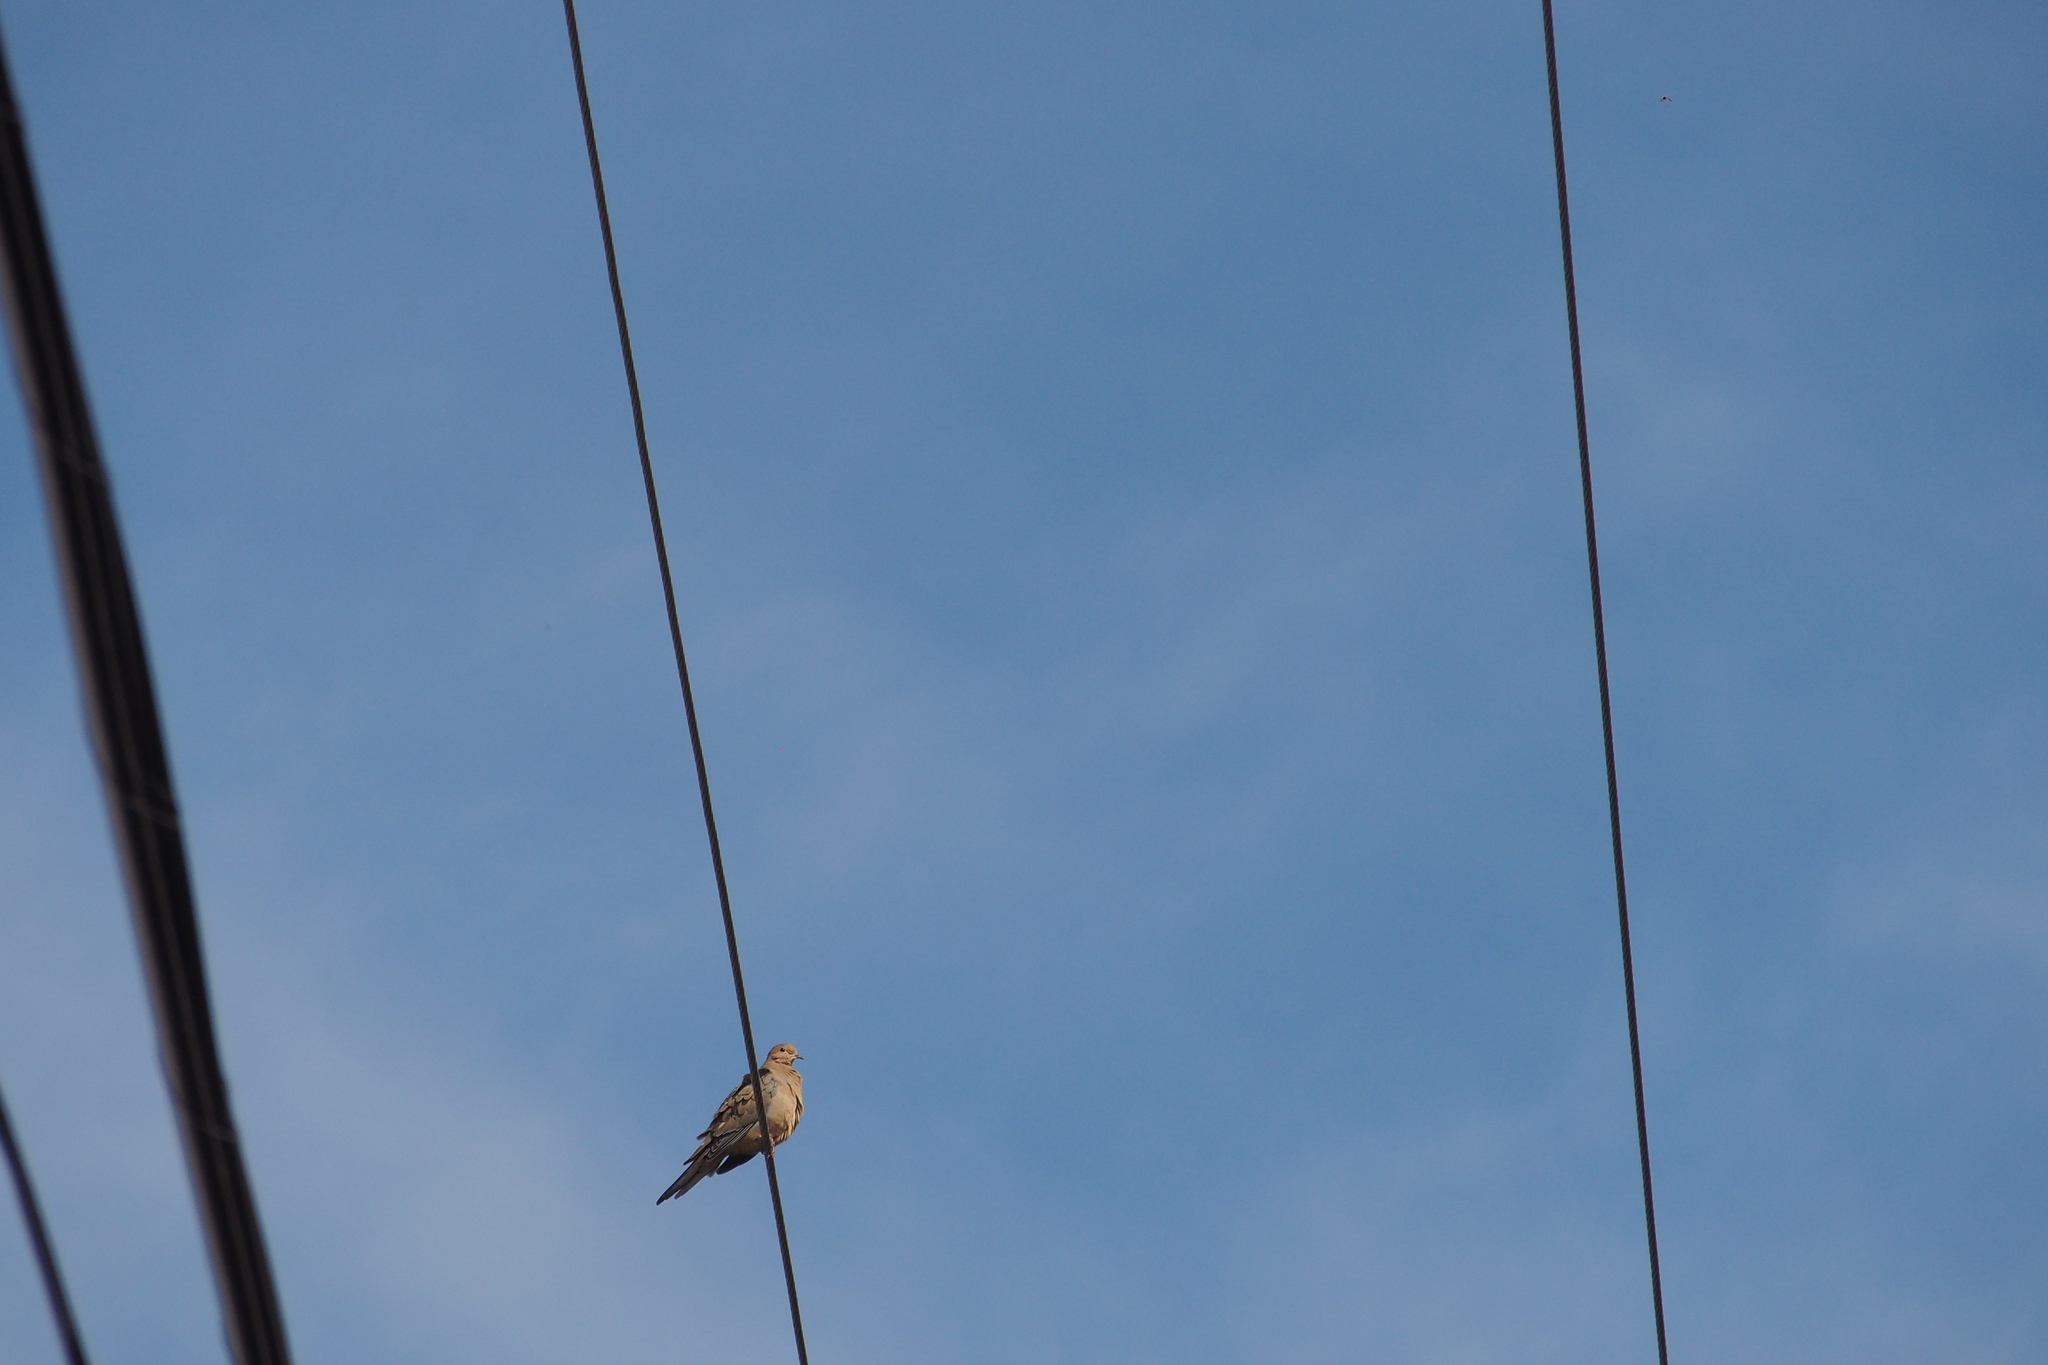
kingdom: Animalia
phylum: Chordata
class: Aves
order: Columbiformes
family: Columbidae
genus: Zenaida
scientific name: Zenaida macroura
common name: Mourning dove
